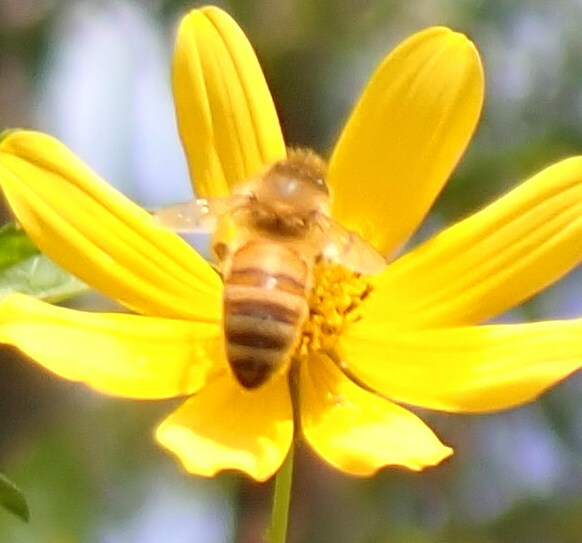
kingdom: Animalia
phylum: Arthropoda
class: Insecta
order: Hymenoptera
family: Apidae
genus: Apis
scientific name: Apis mellifera
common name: Honey bee
